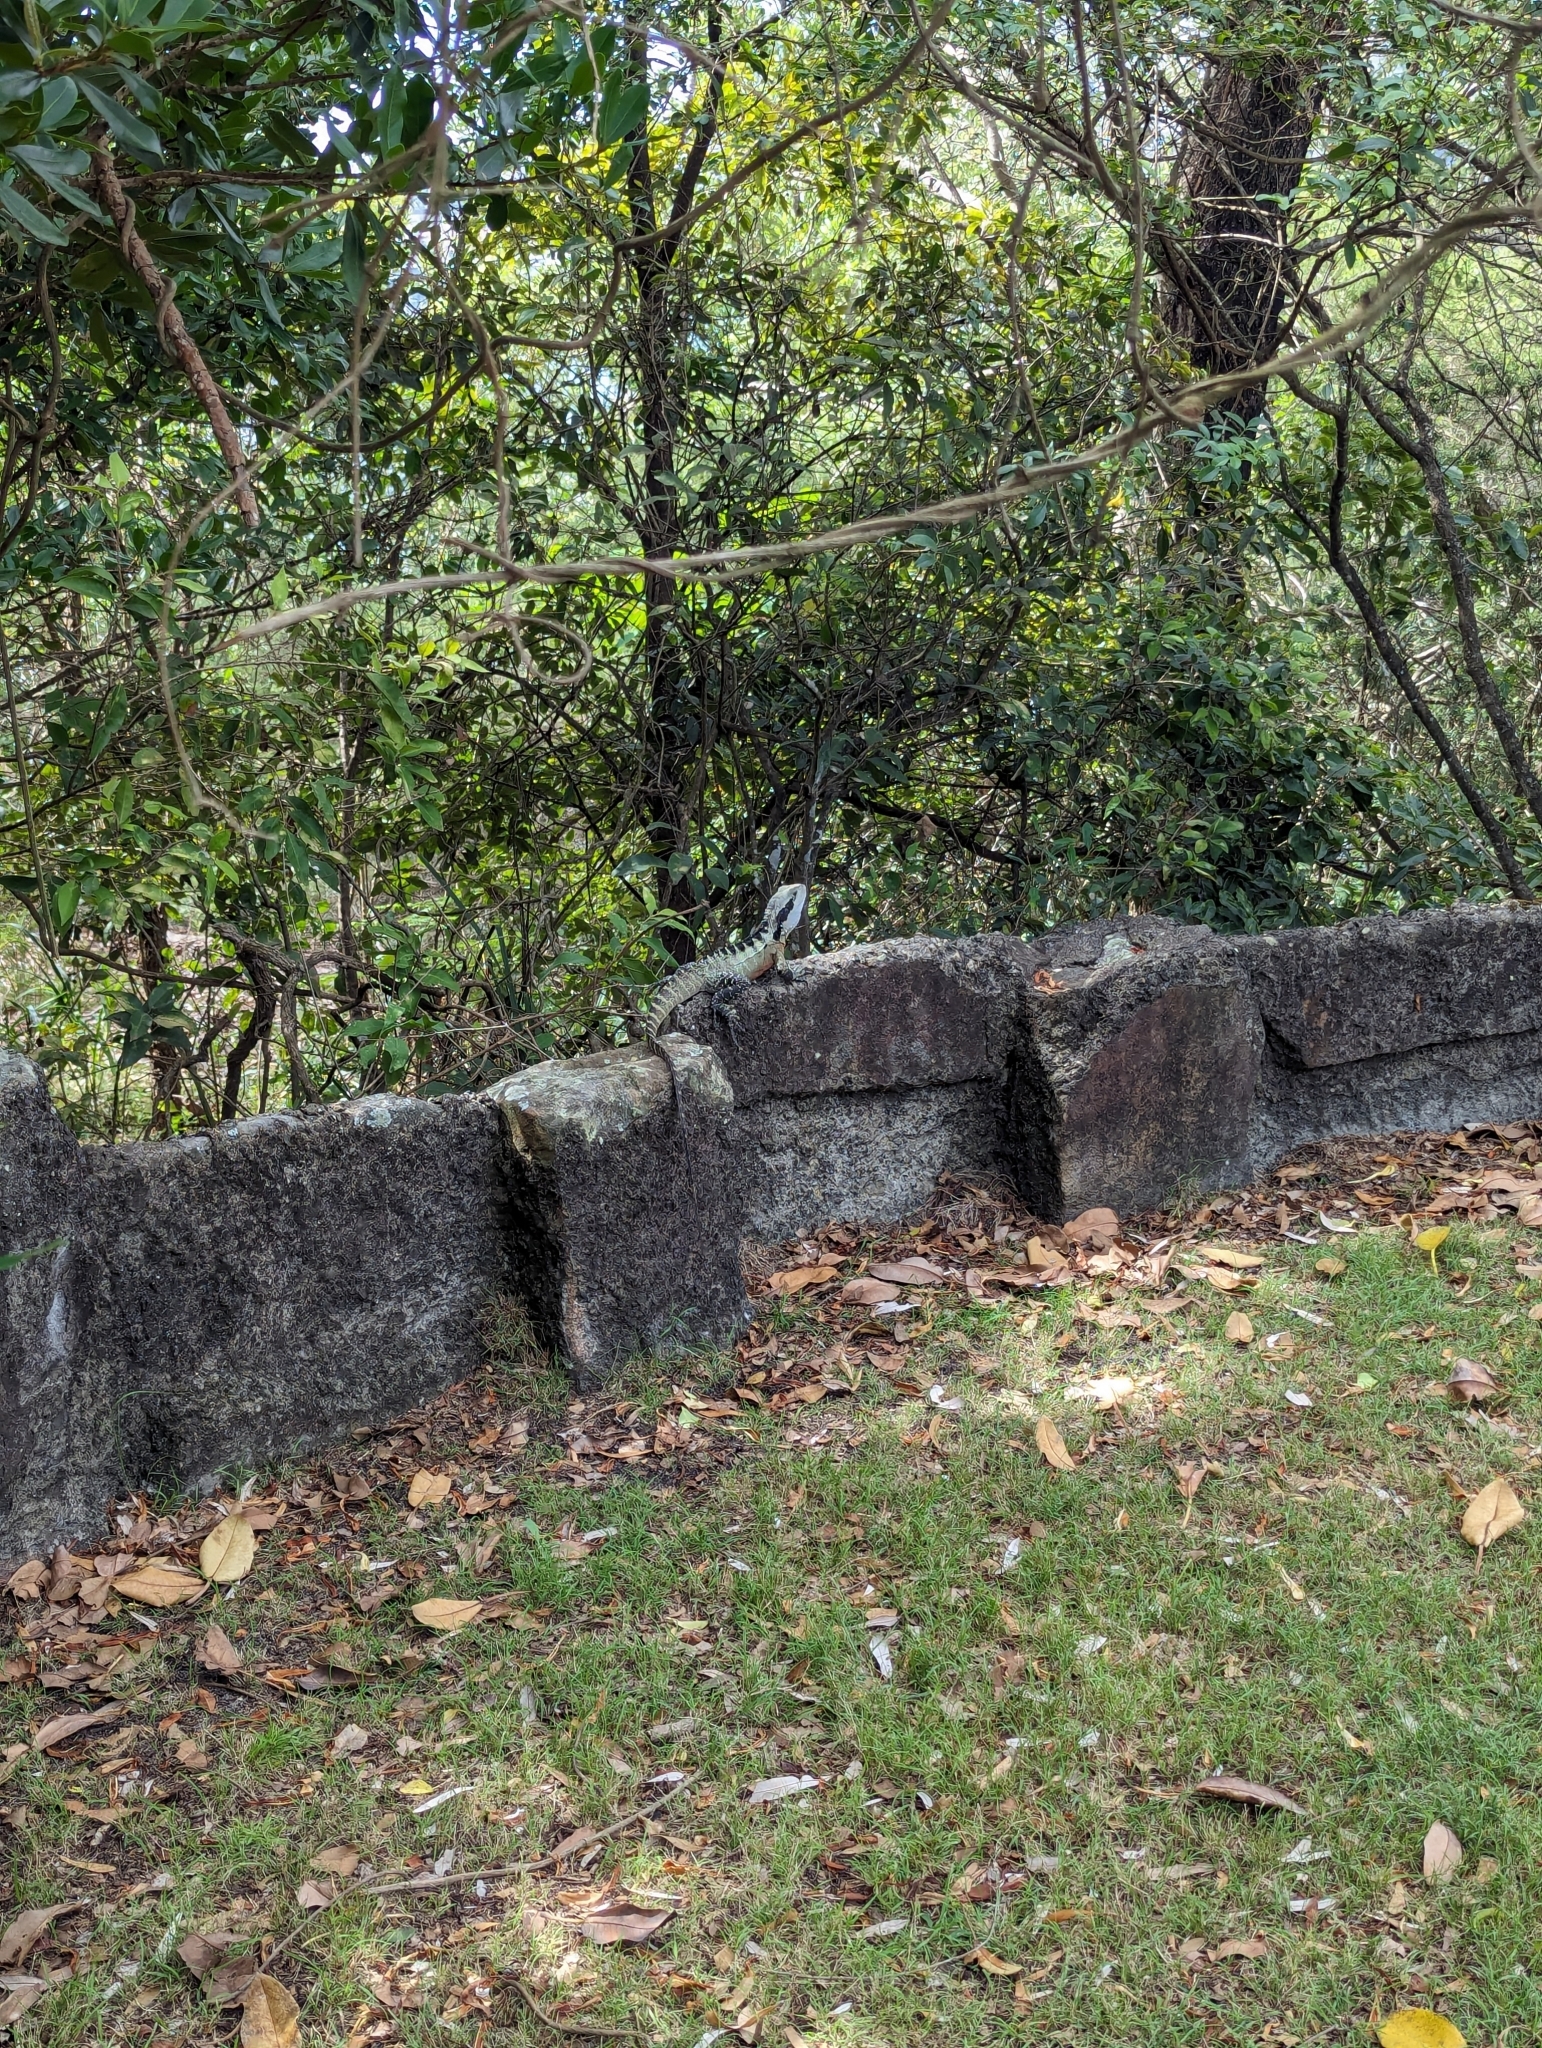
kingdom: Animalia
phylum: Chordata
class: Squamata
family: Agamidae
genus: Intellagama
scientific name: Intellagama lesueurii
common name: Eastern water dragon
